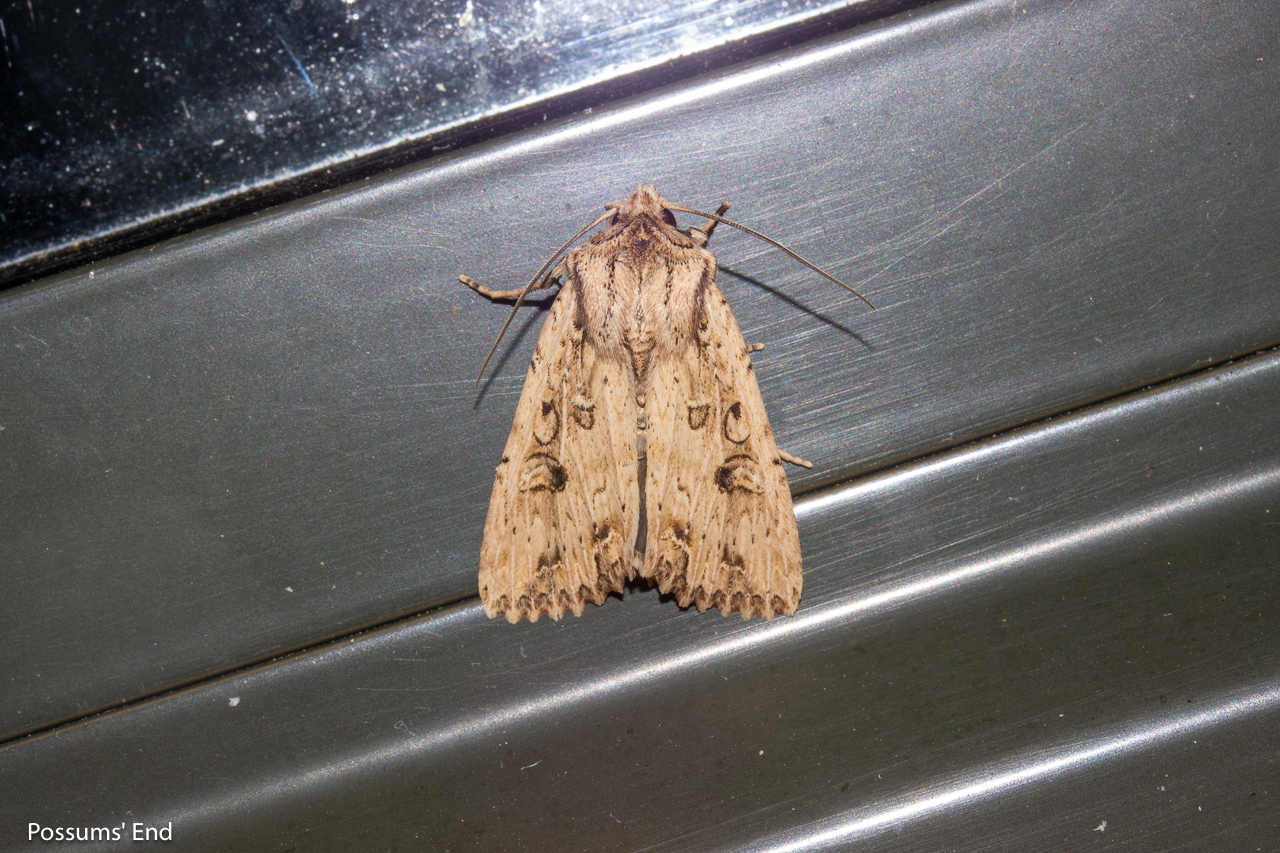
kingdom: Animalia
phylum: Arthropoda
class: Insecta
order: Lepidoptera
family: Noctuidae
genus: Ichneutica
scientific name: Ichneutica lignana
